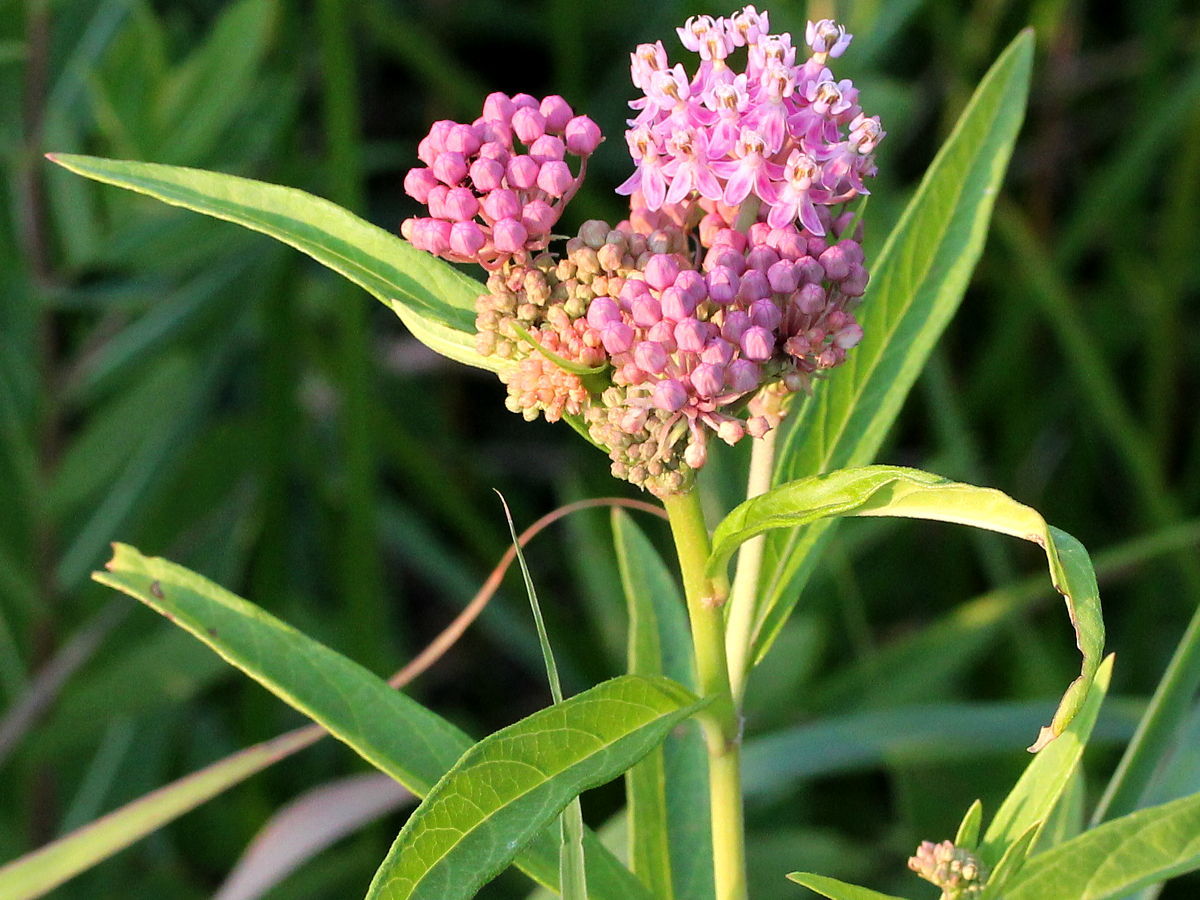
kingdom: Plantae
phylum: Tracheophyta
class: Magnoliopsida
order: Gentianales
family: Apocynaceae
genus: Asclepias
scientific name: Asclepias incarnata
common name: Swamp milkweed
